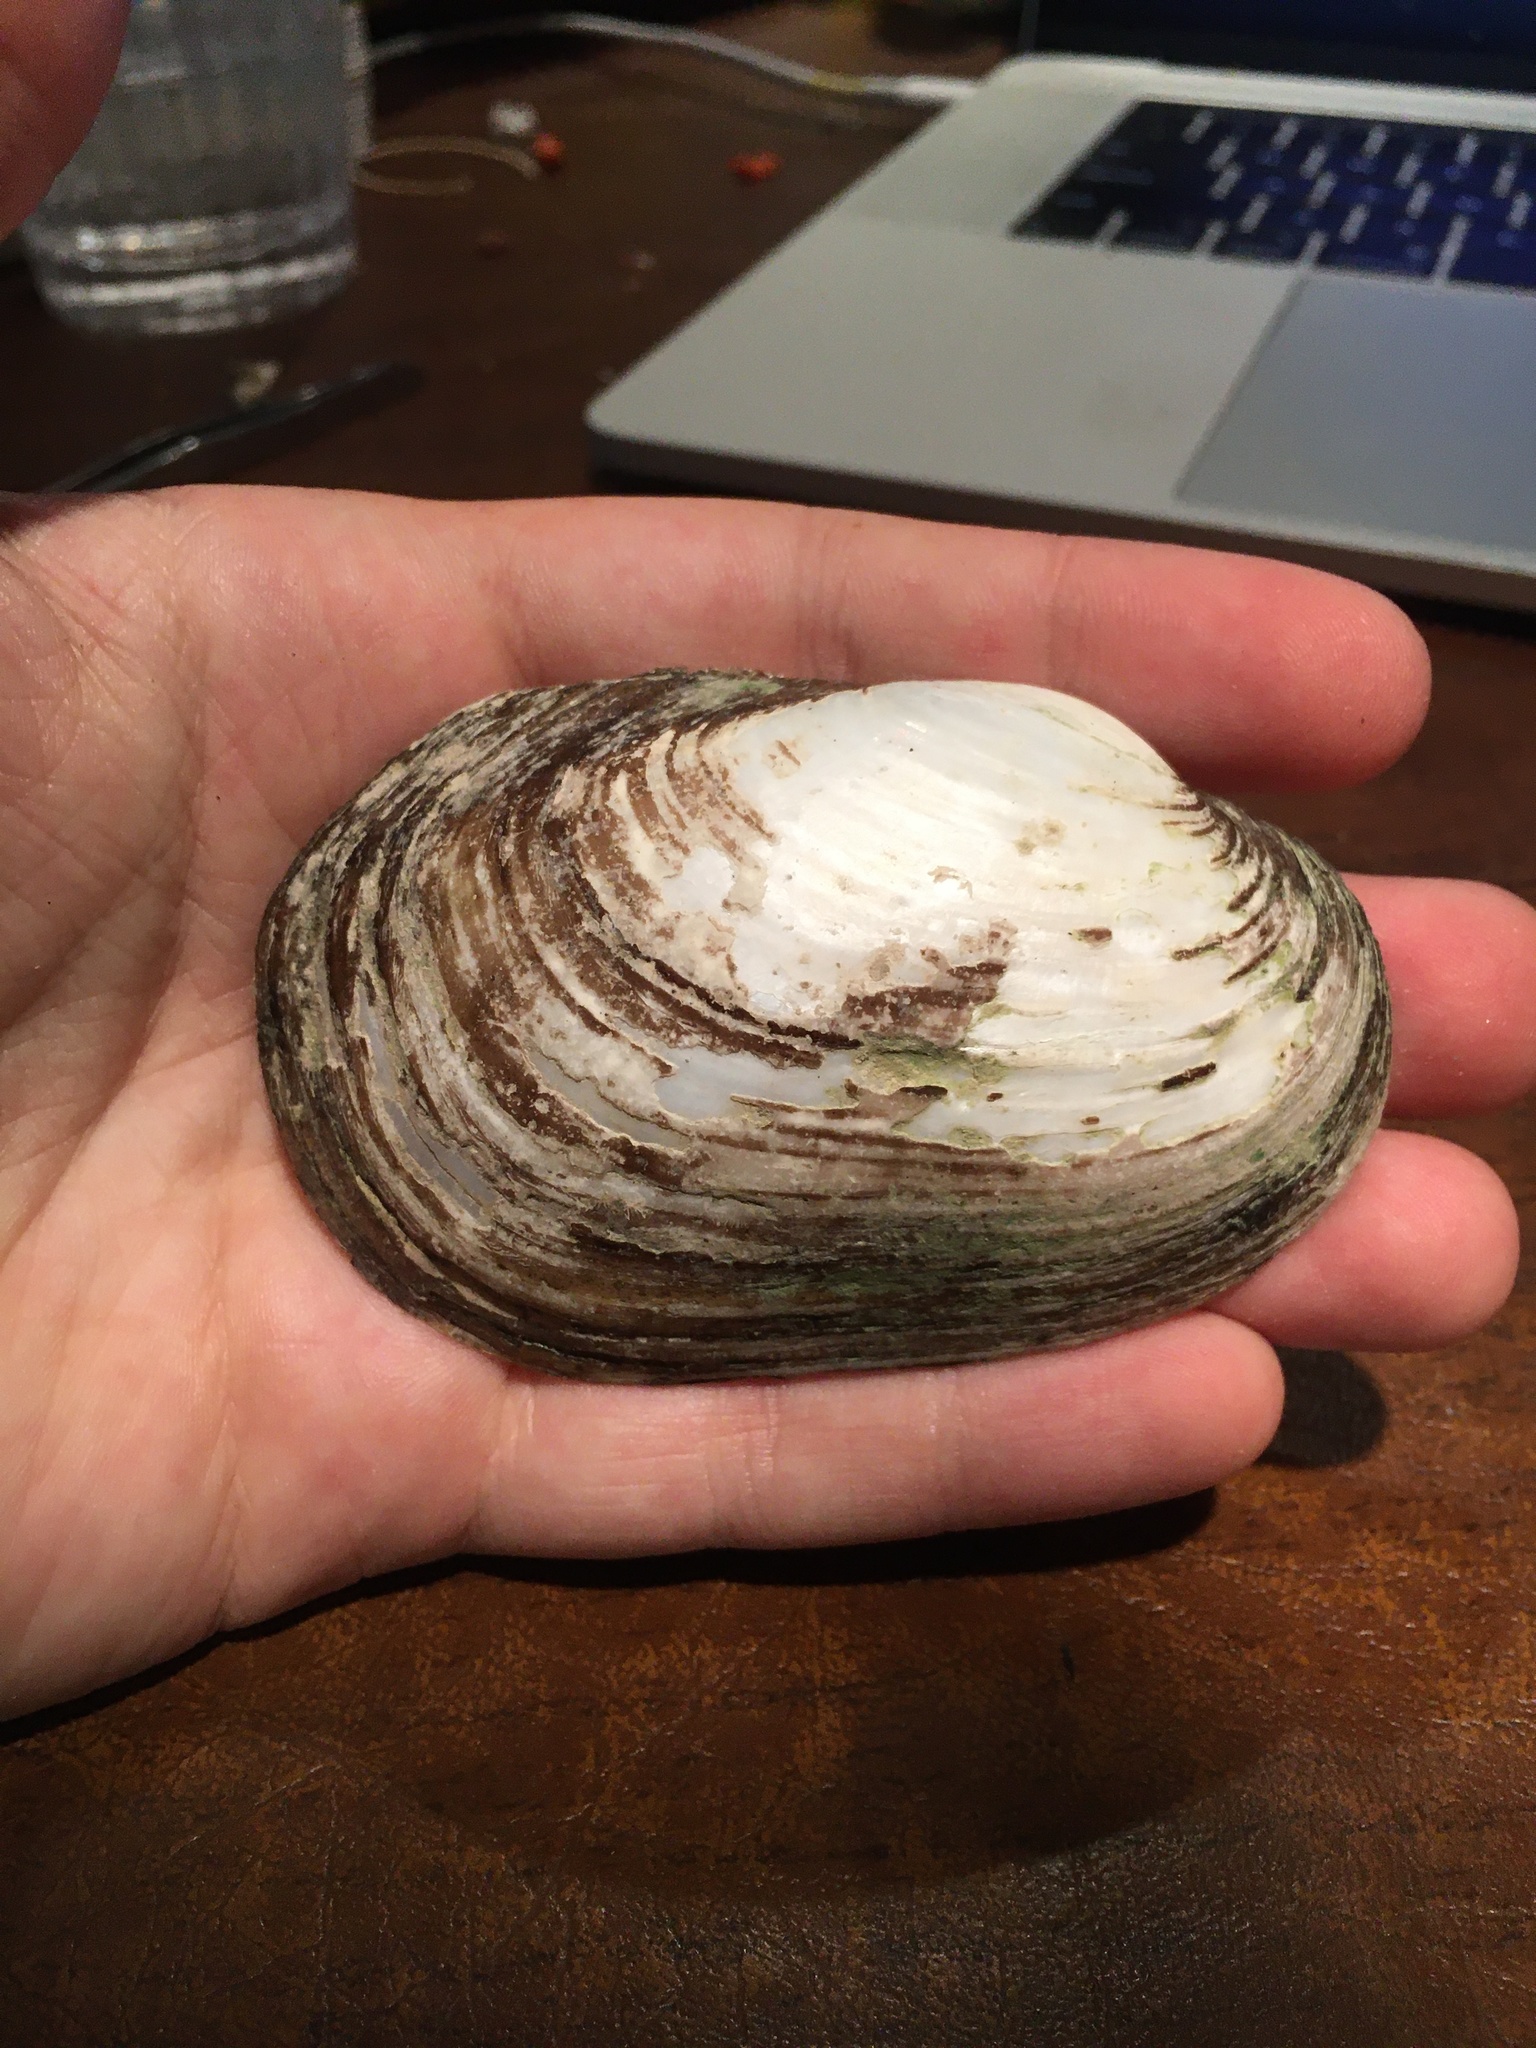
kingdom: Animalia
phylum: Mollusca
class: Bivalvia
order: Unionida
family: Unionidae
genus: Lampsilis
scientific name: Lampsilis siliquoidea
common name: Fatmucket
